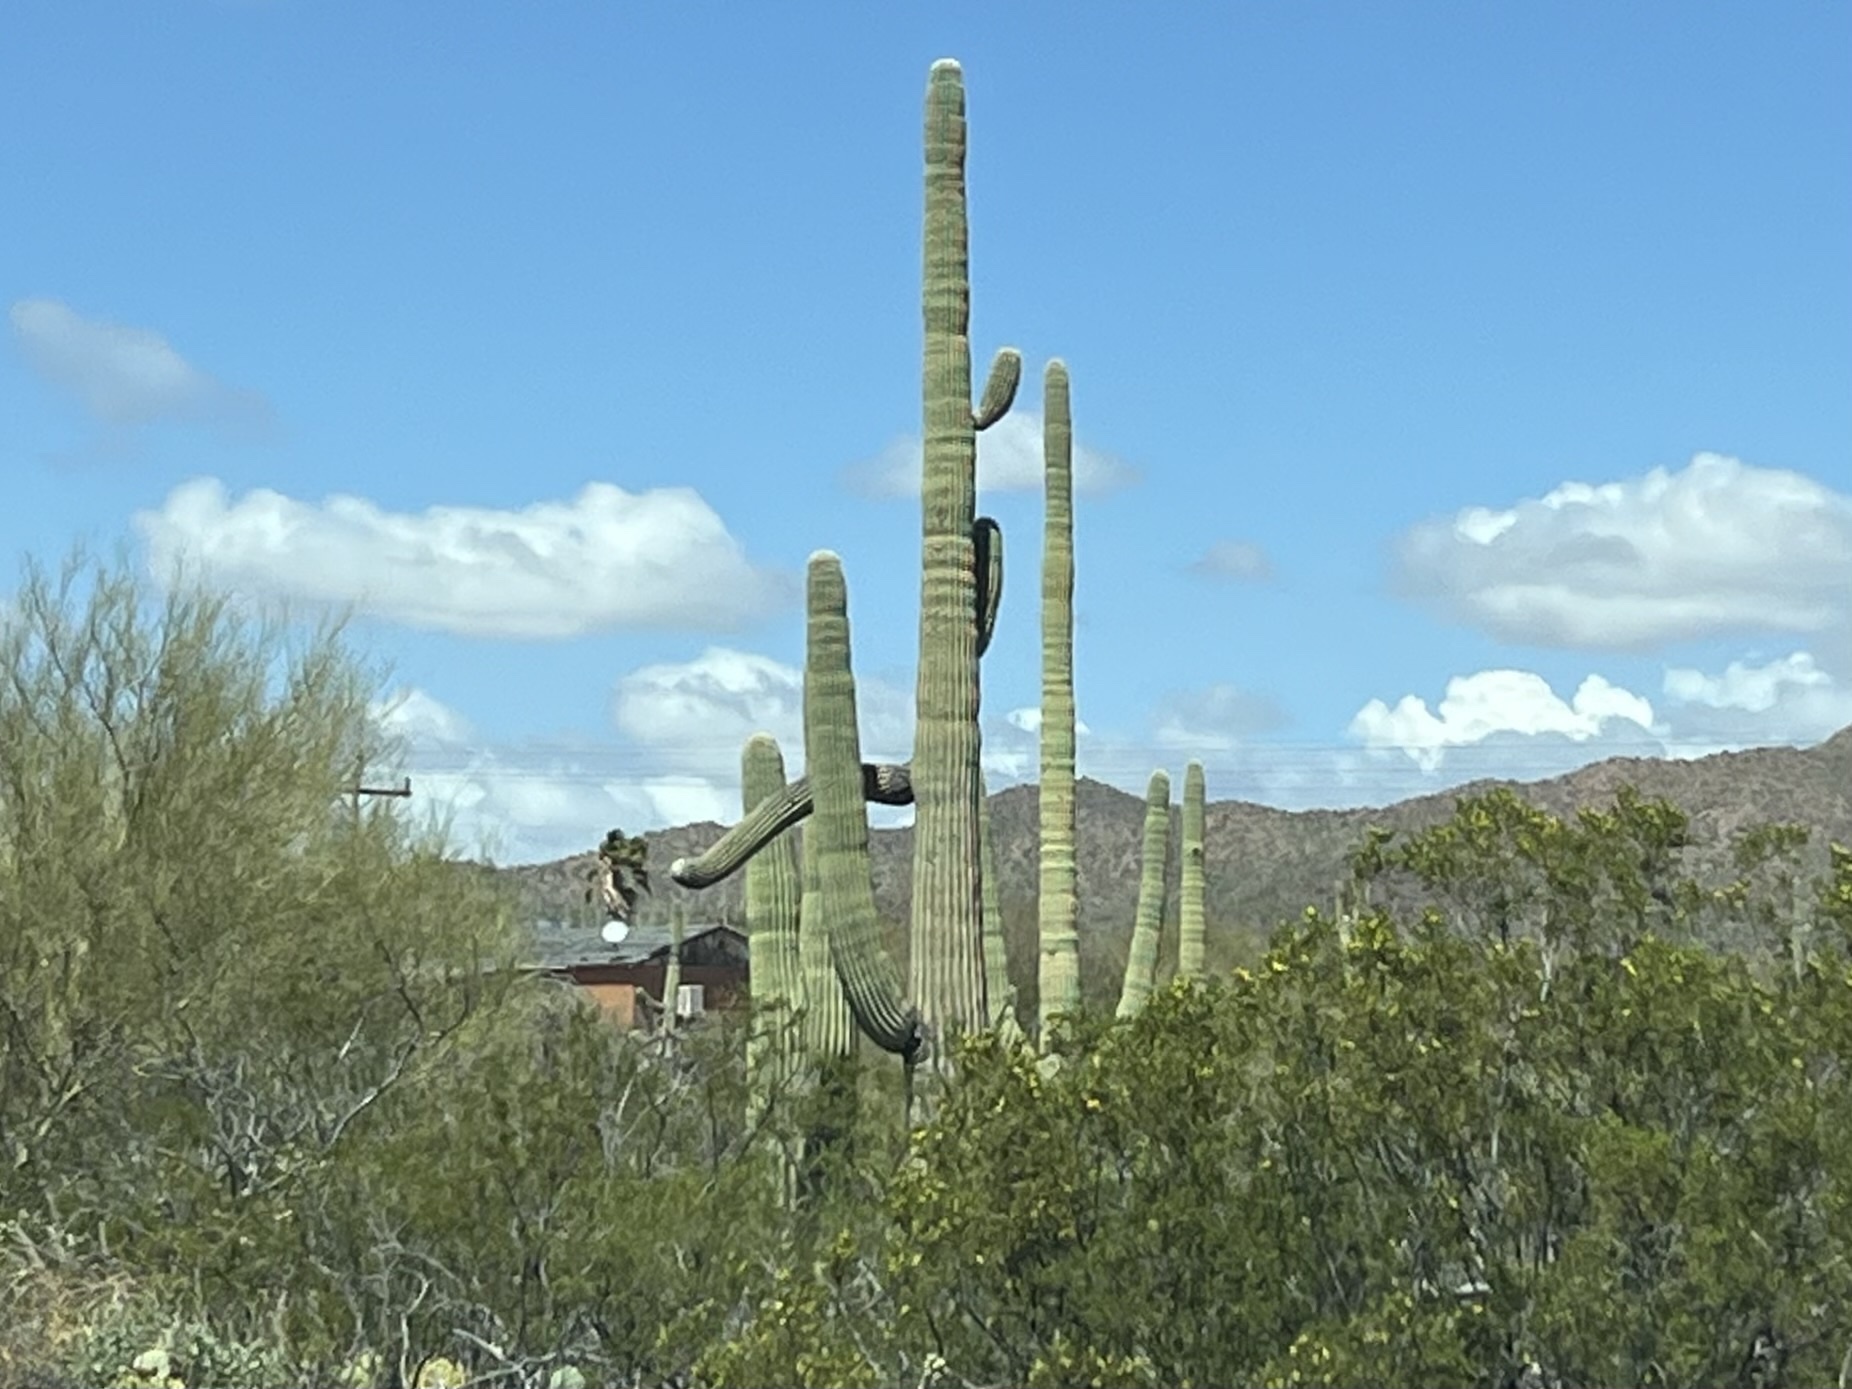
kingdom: Plantae
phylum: Tracheophyta
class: Magnoliopsida
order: Caryophyllales
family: Cactaceae
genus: Carnegiea
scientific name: Carnegiea gigantea
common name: Saguaro
